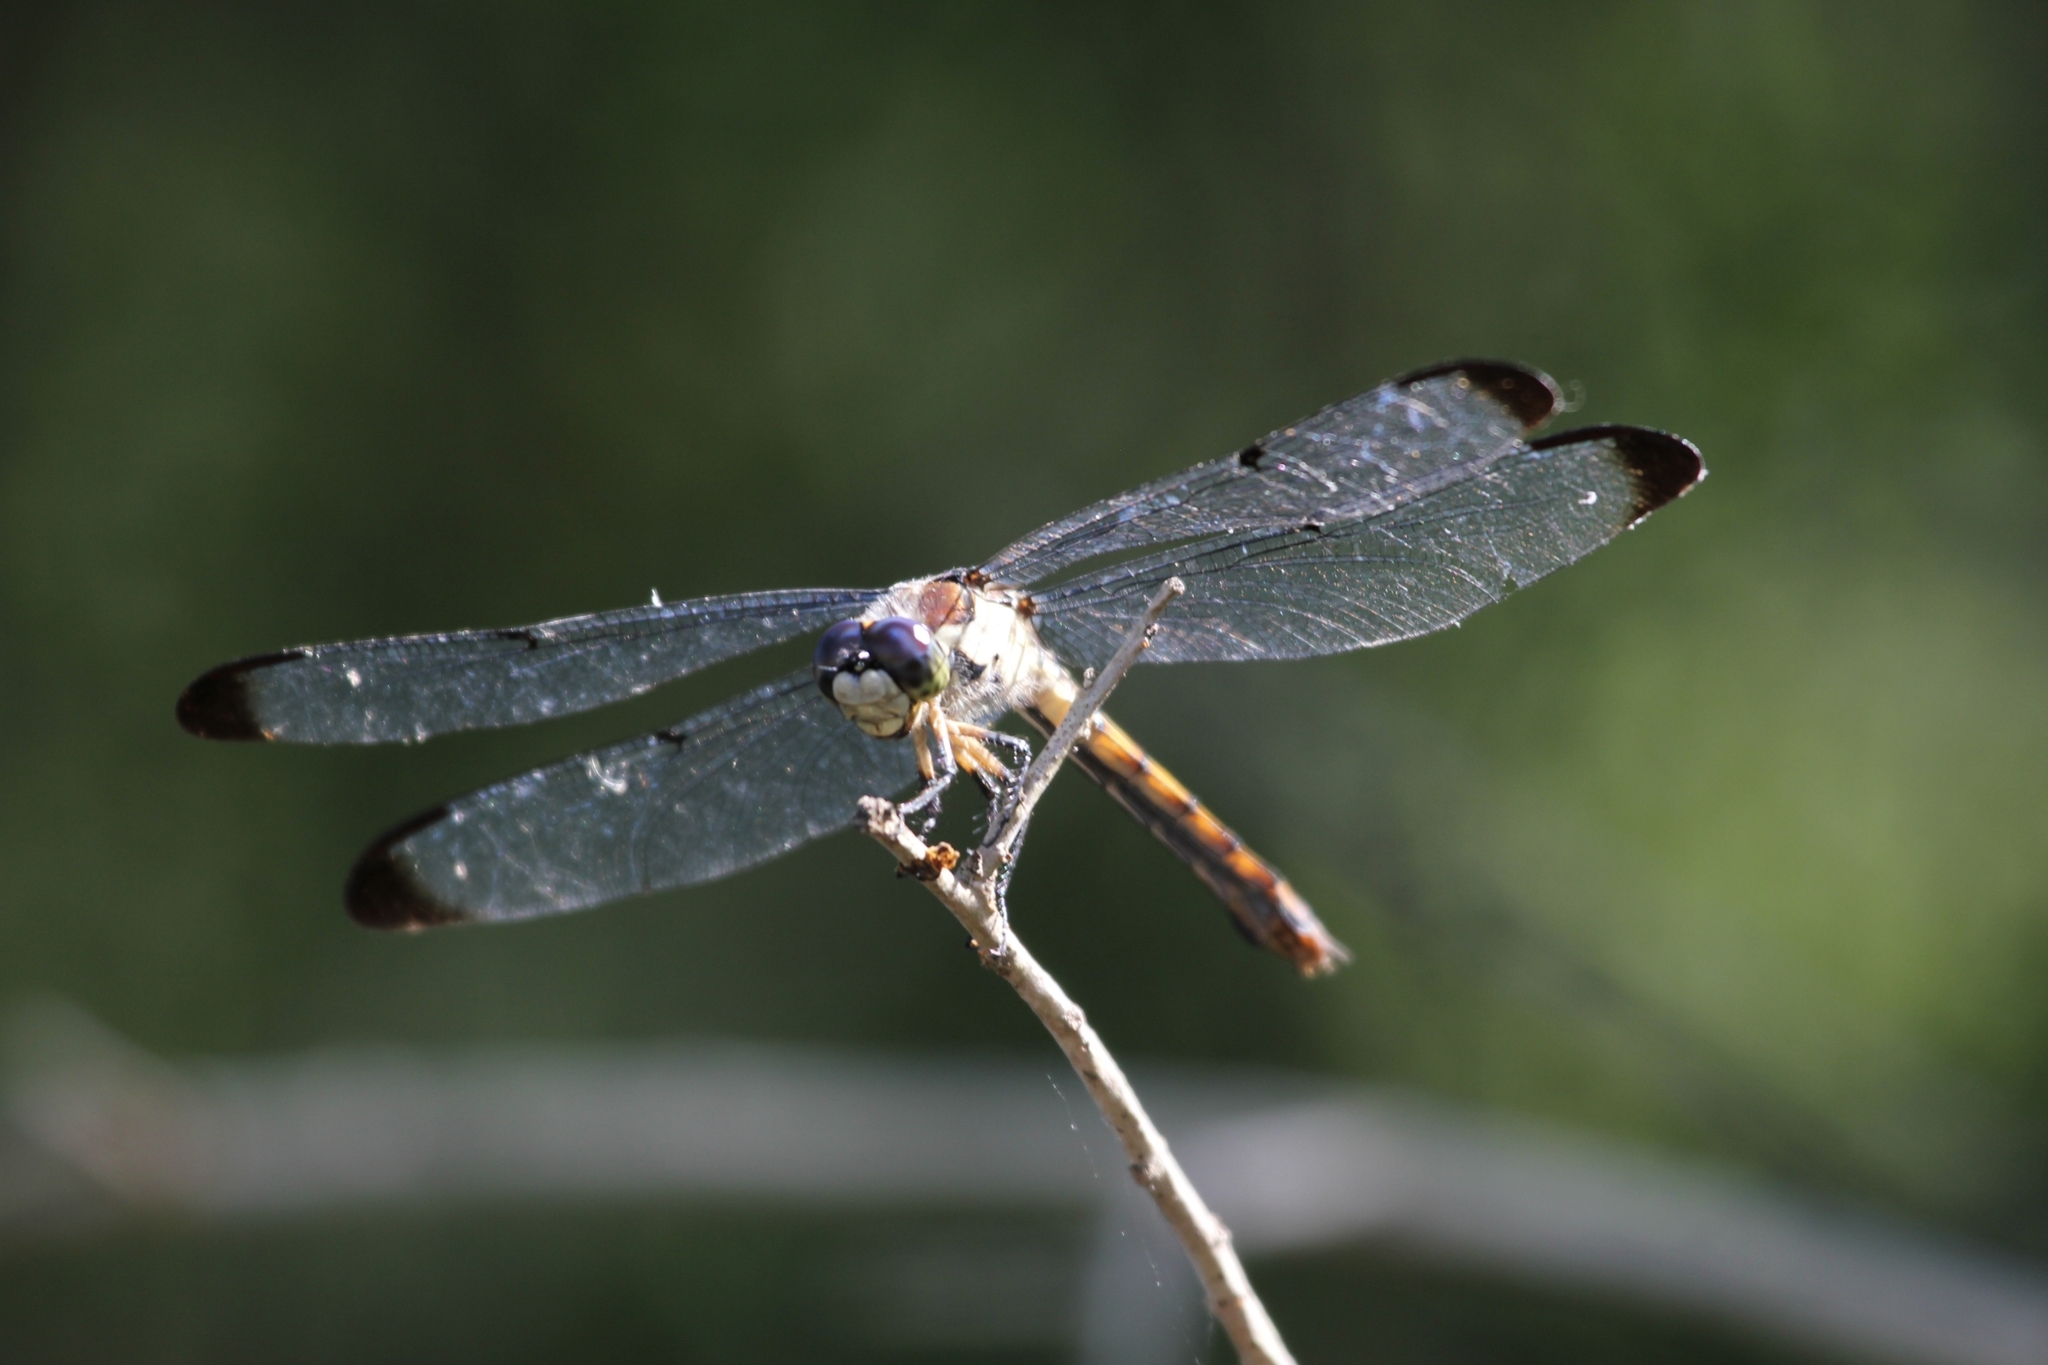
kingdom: Animalia
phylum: Arthropoda
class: Insecta
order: Odonata
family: Libellulidae
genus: Libellula
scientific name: Libellula vibrans
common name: Great blue skimmer
